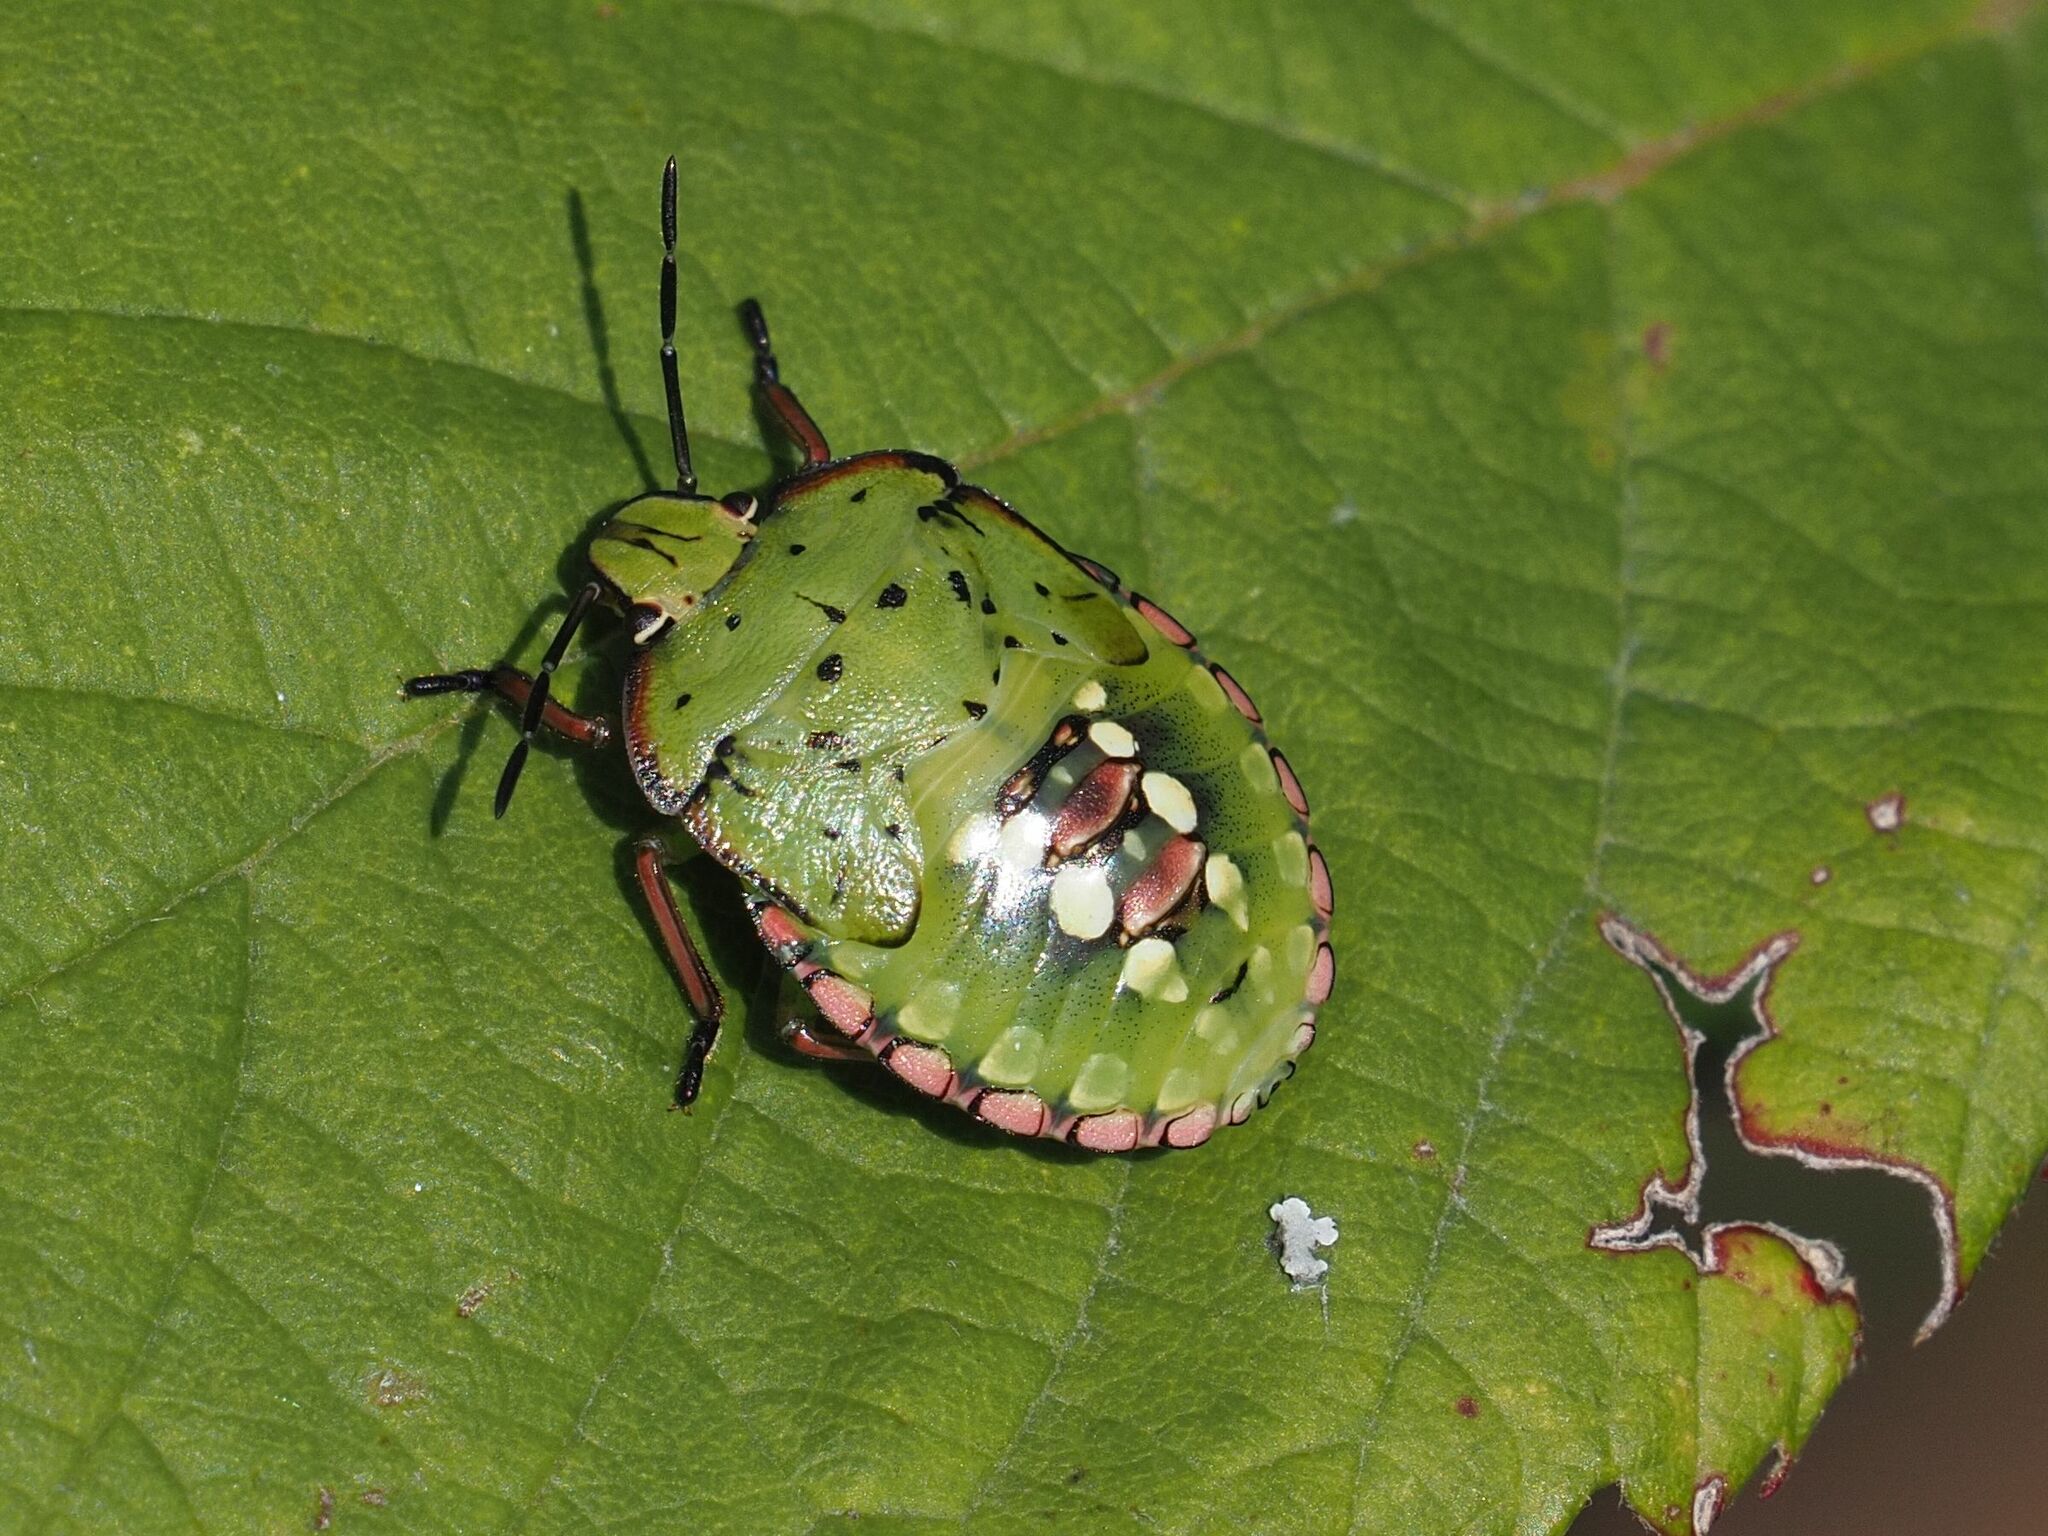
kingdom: Animalia
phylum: Arthropoda
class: Insecta
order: Hemiptera
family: Pentatomidae
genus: Nezara
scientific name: Nezara viridula
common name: Southern green stink bug
